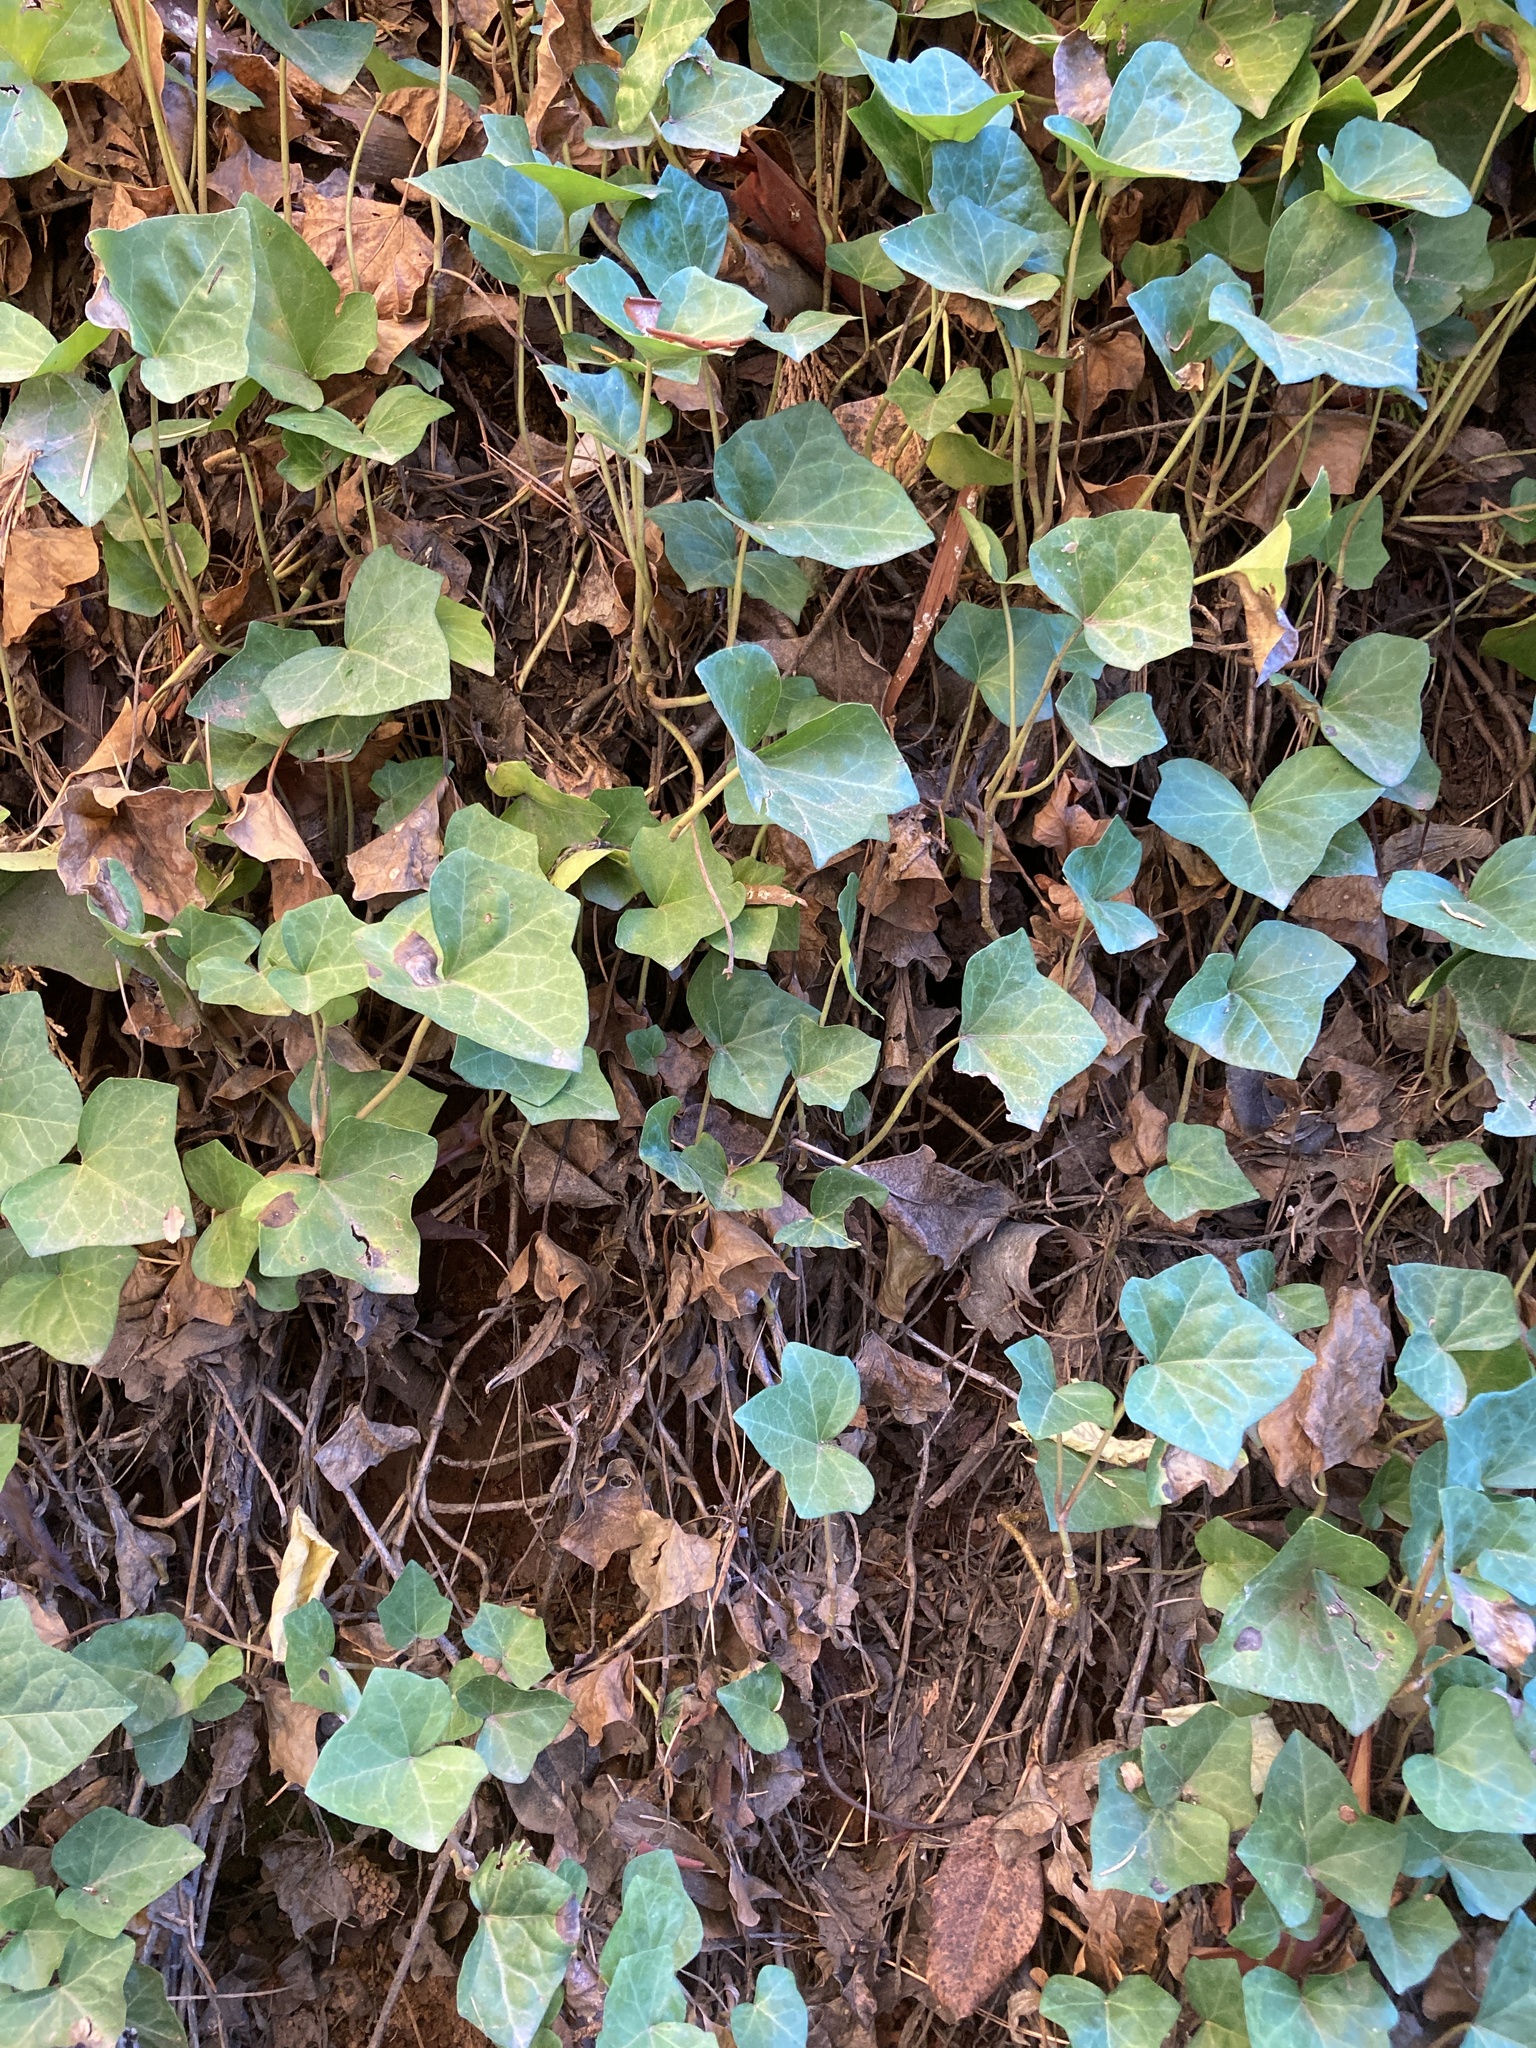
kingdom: Plantae
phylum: Tracheophyta
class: Magnoliopsida
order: Apiales
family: Araliaceae
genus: Hedera
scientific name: Hedera helix
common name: Ivy
